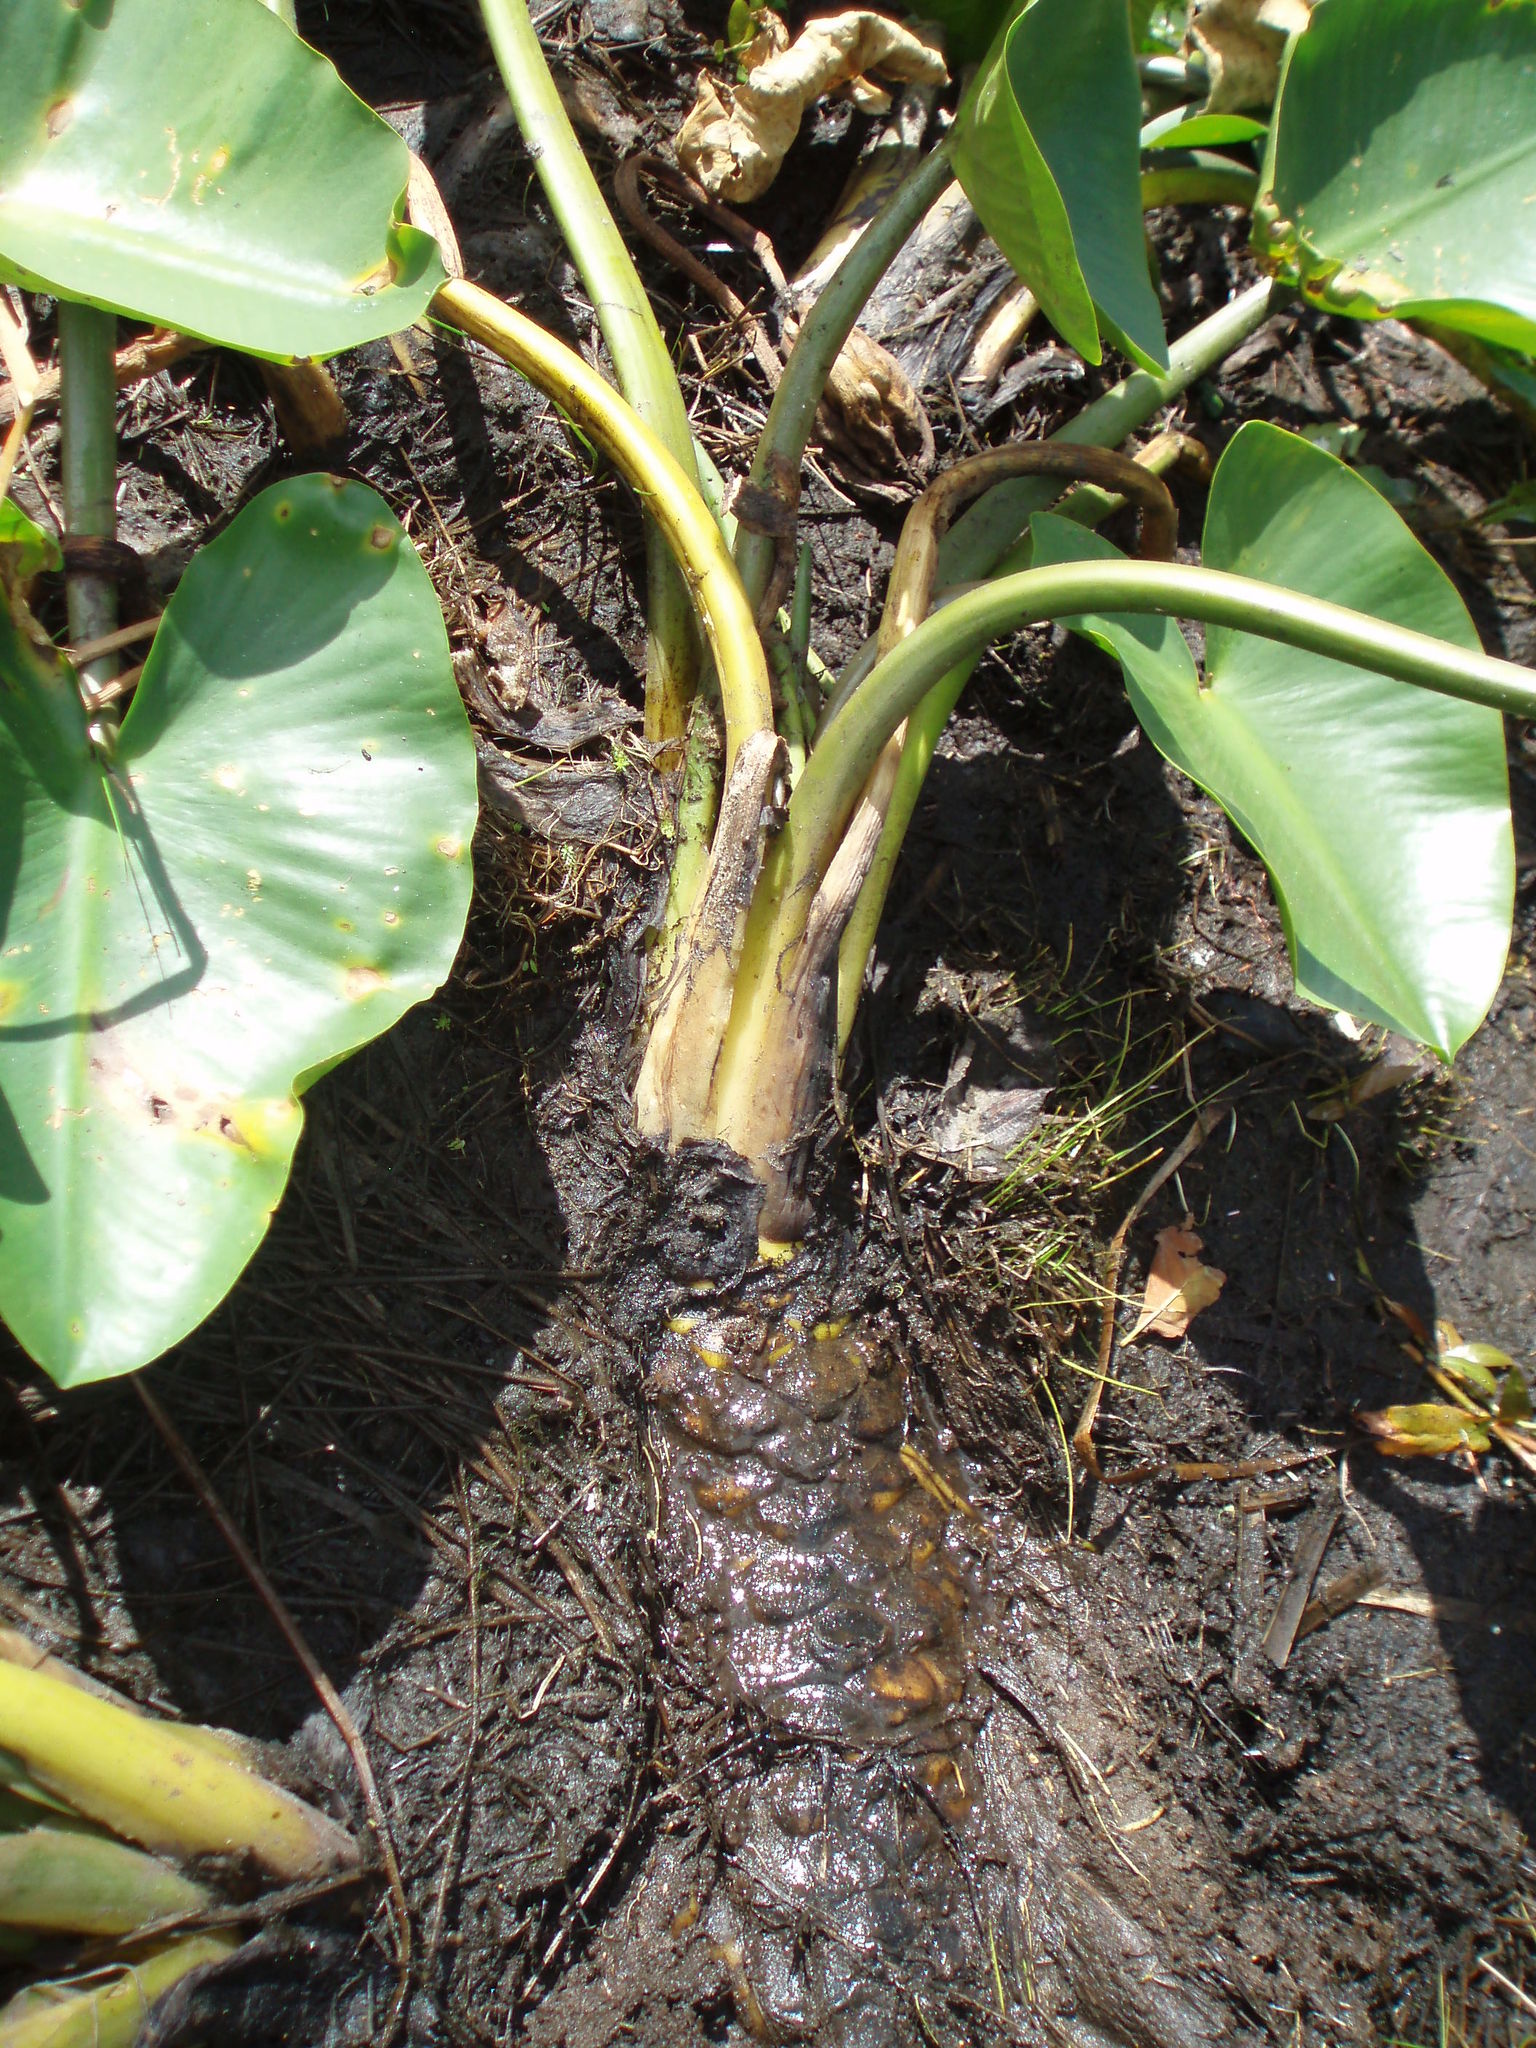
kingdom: Plantae
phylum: Tracheophyta
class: Magnoliopsida
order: Nymphaeales
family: Nymphaeaceae
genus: Nuphar
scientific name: Nuphar polysepala
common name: Rocky mountain cow-lily
